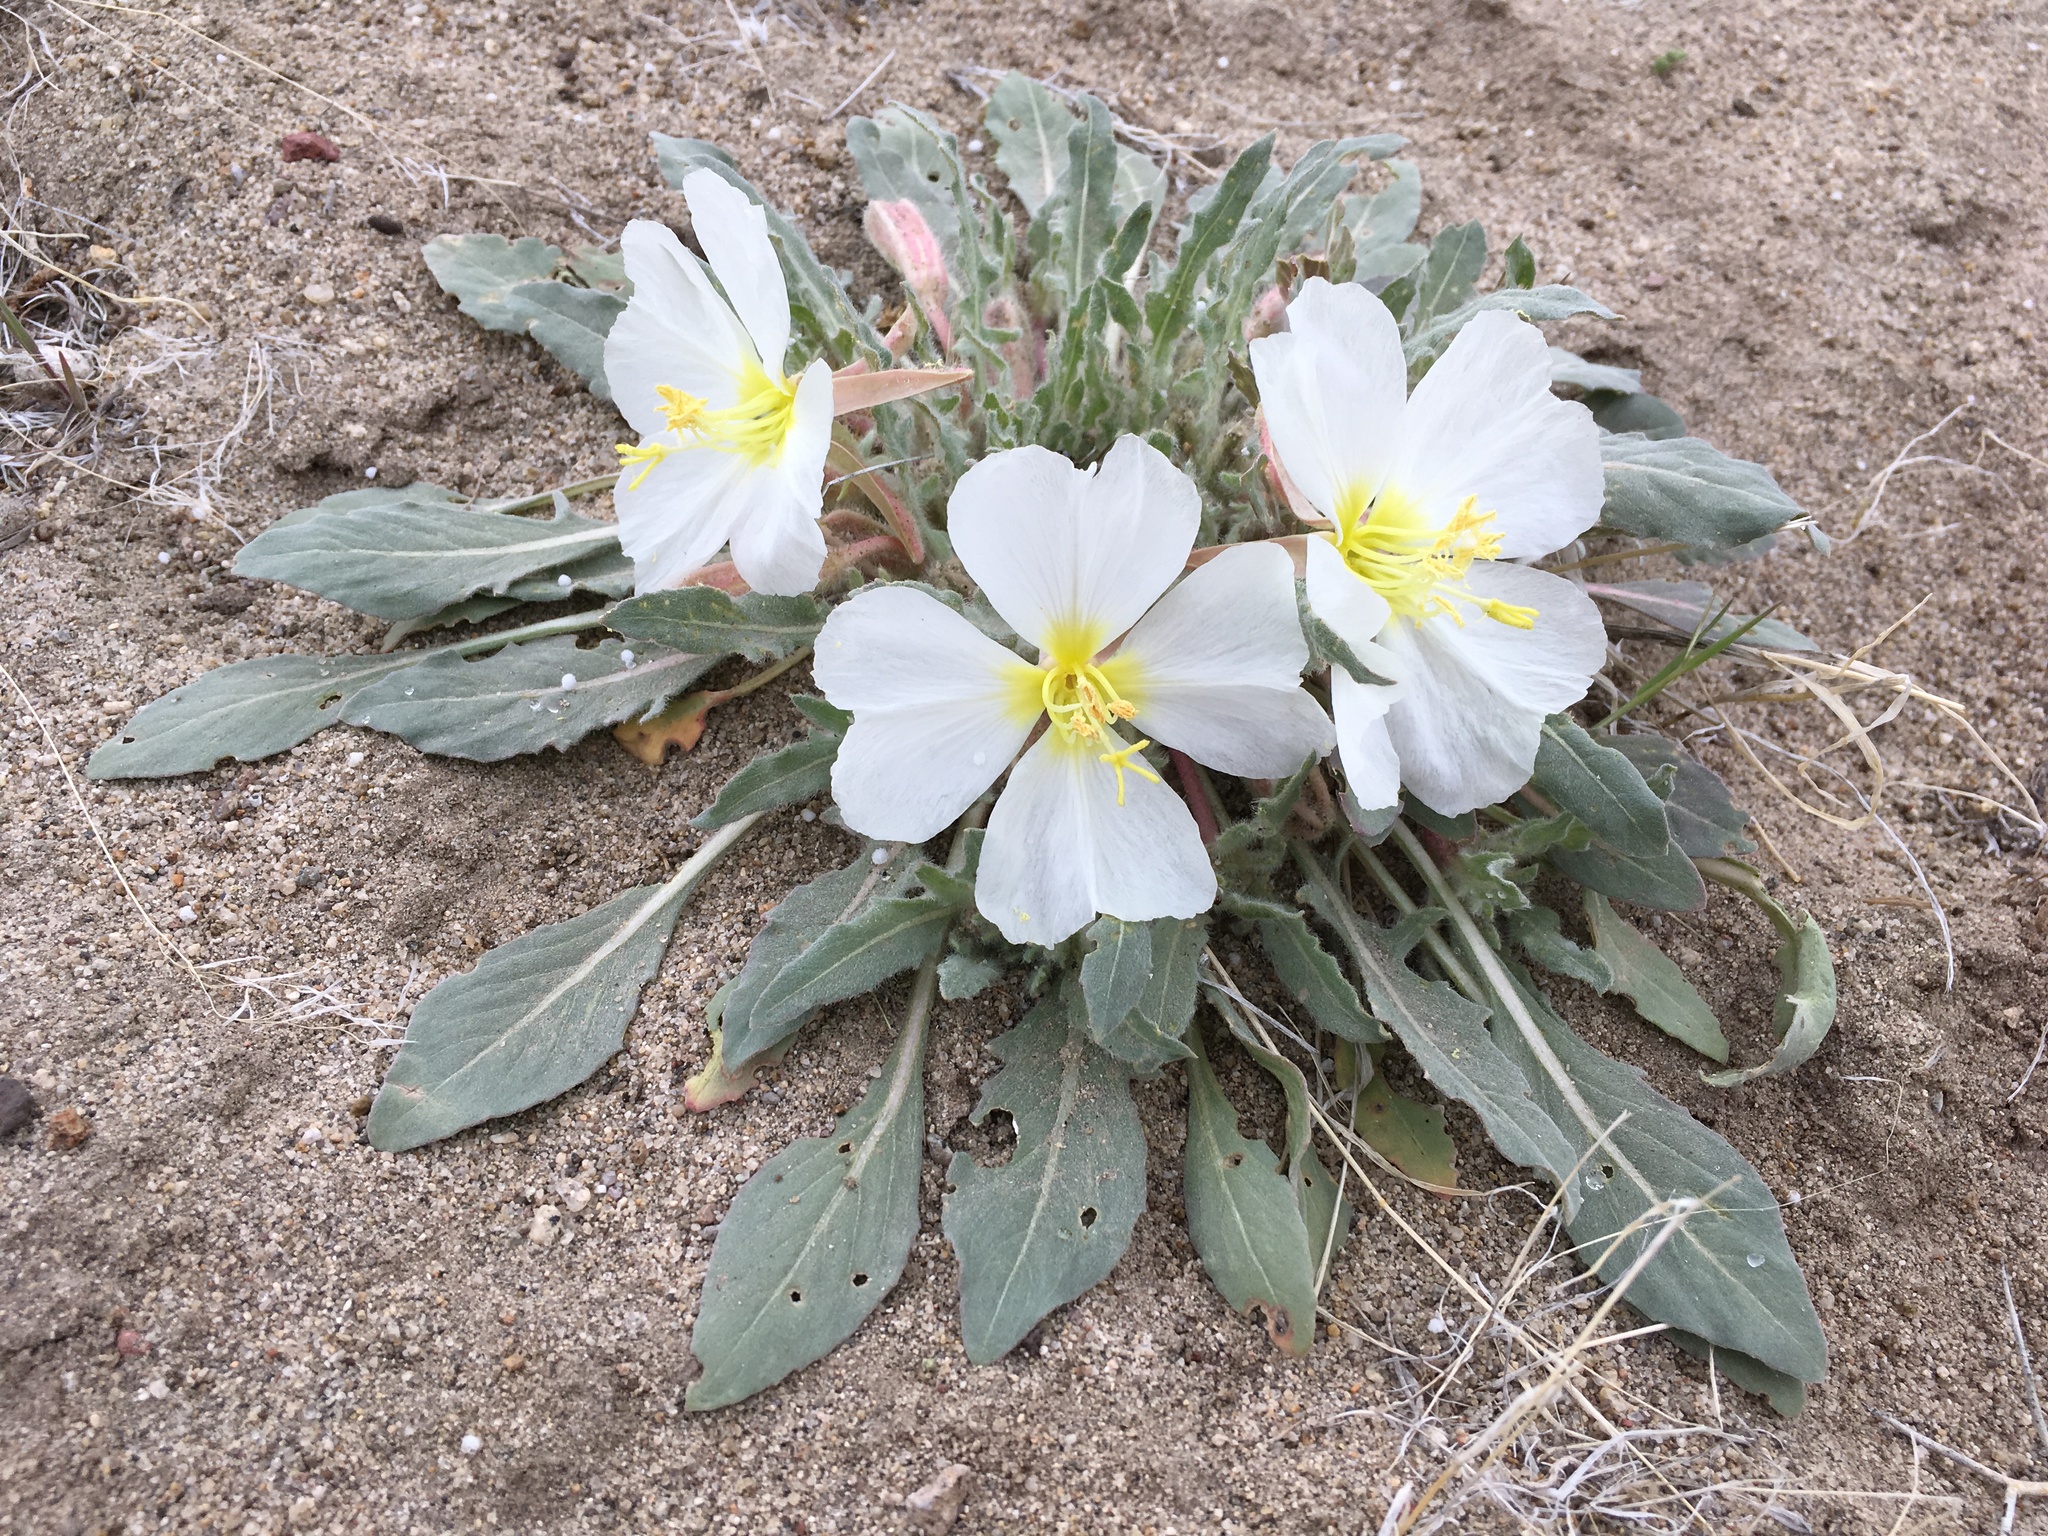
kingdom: Plantae
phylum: Tracheophyta
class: Magnoliopsida
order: Myrtales
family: Onagraceae
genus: Oenothera
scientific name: Oenothera deltoides
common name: Basket evening-primrose
